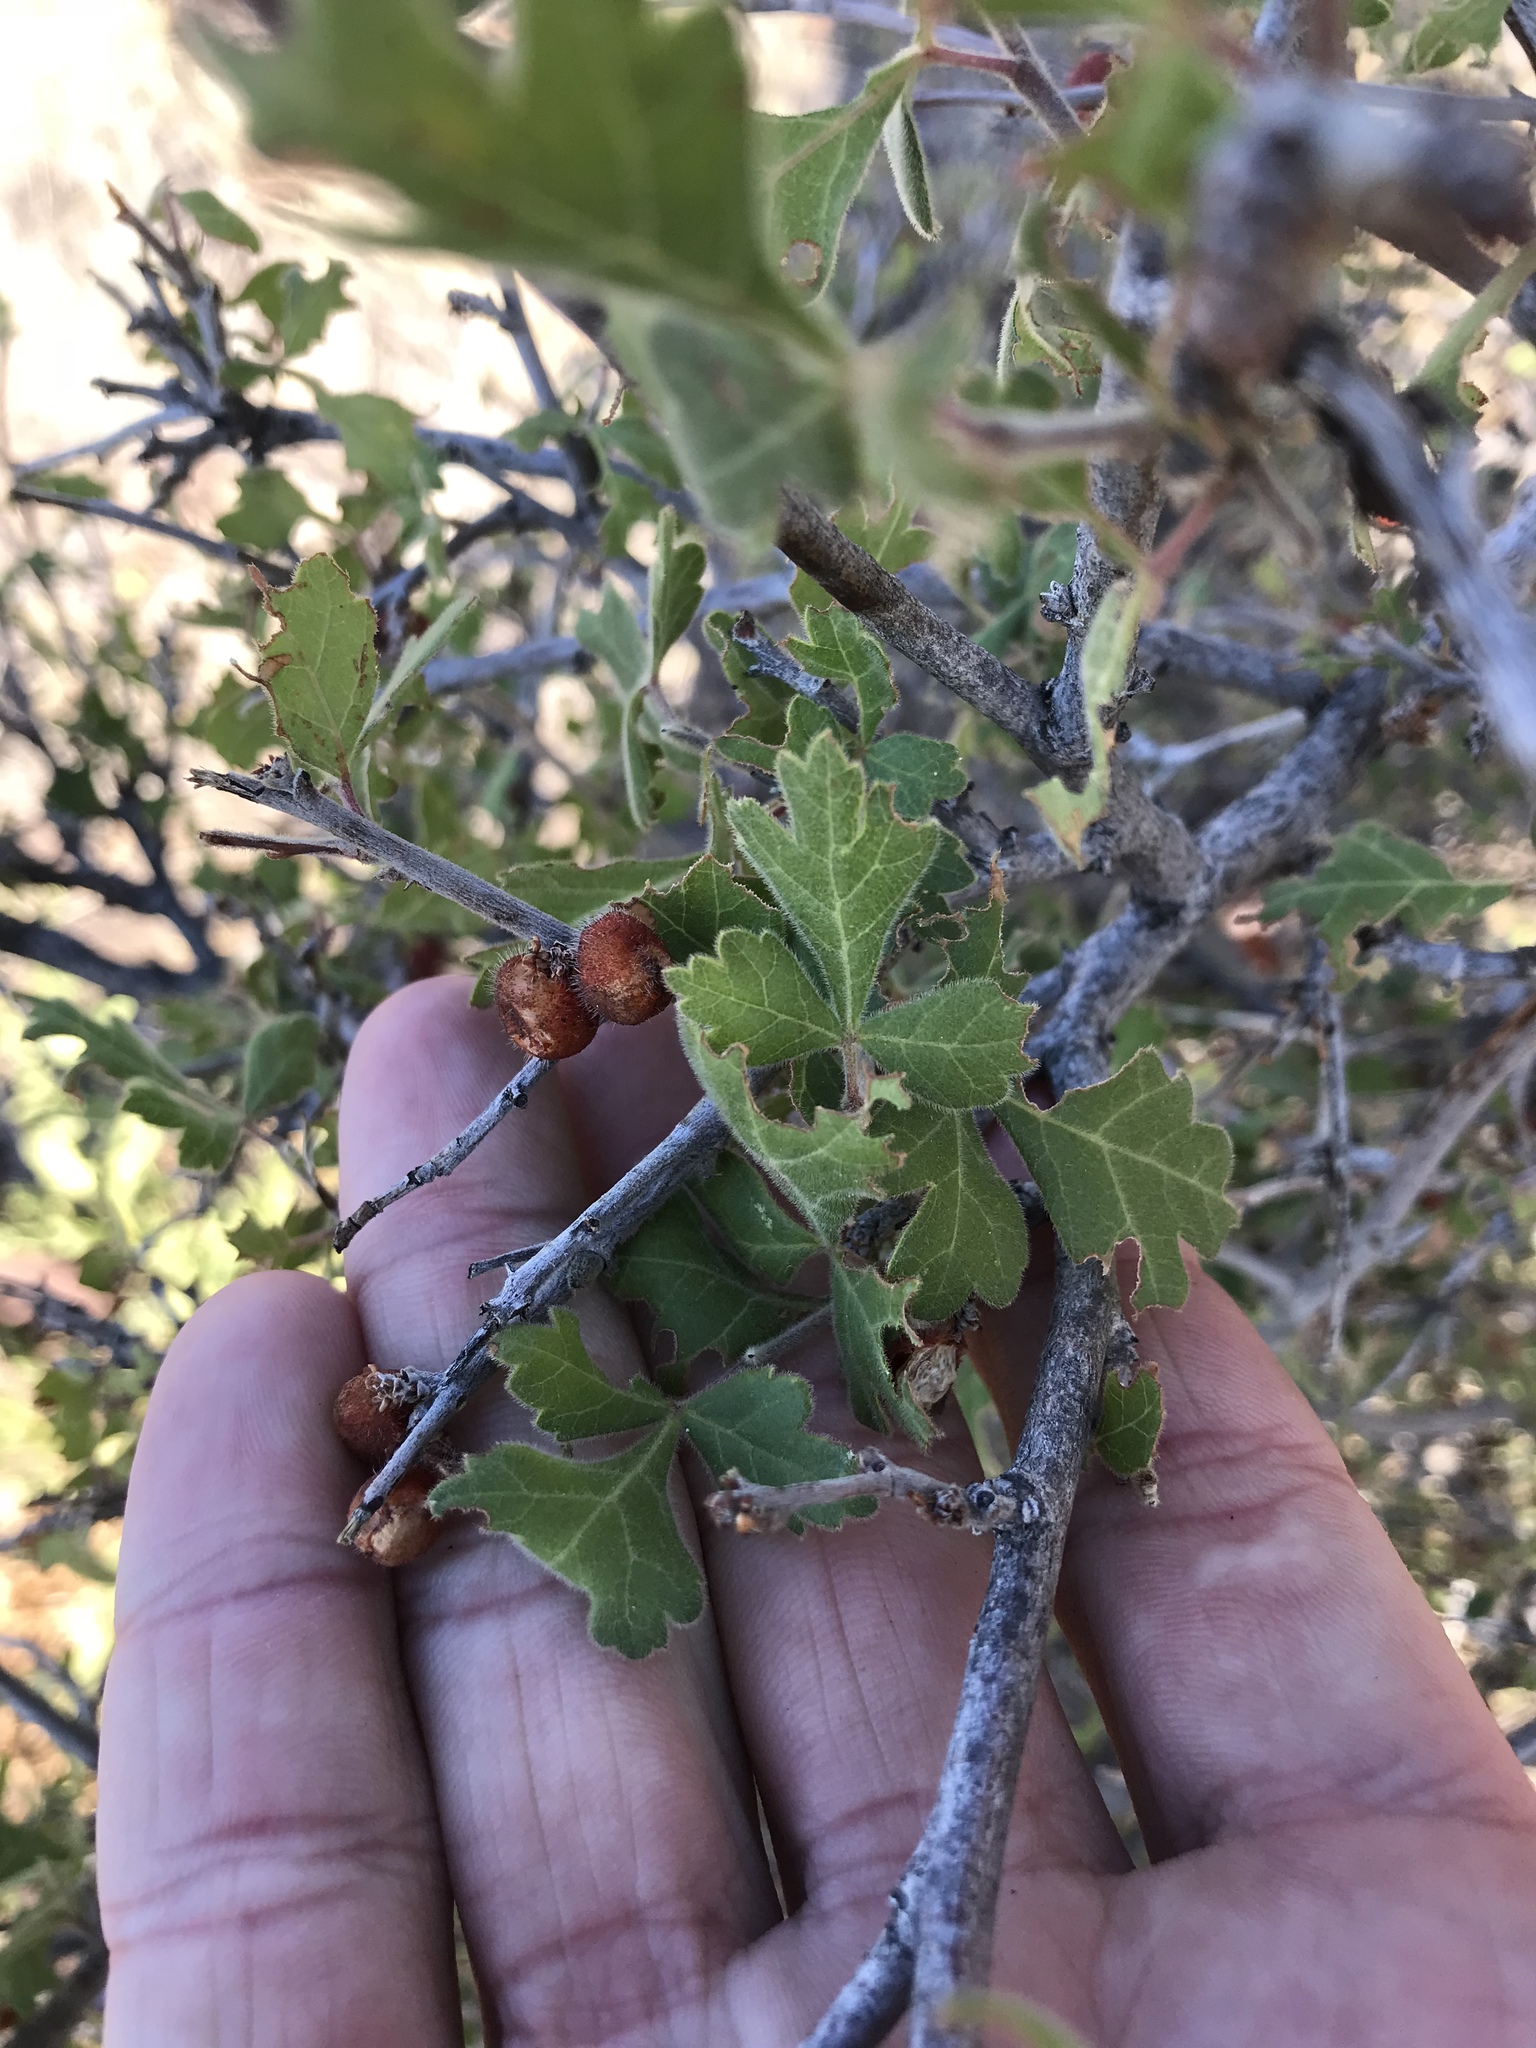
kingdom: Plantae
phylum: Tracheophyta
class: Magnoliopsida
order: Sapindales
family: Anacardiaceae
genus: Rhus
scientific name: Rhus aromatica
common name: Aromatic sumac
